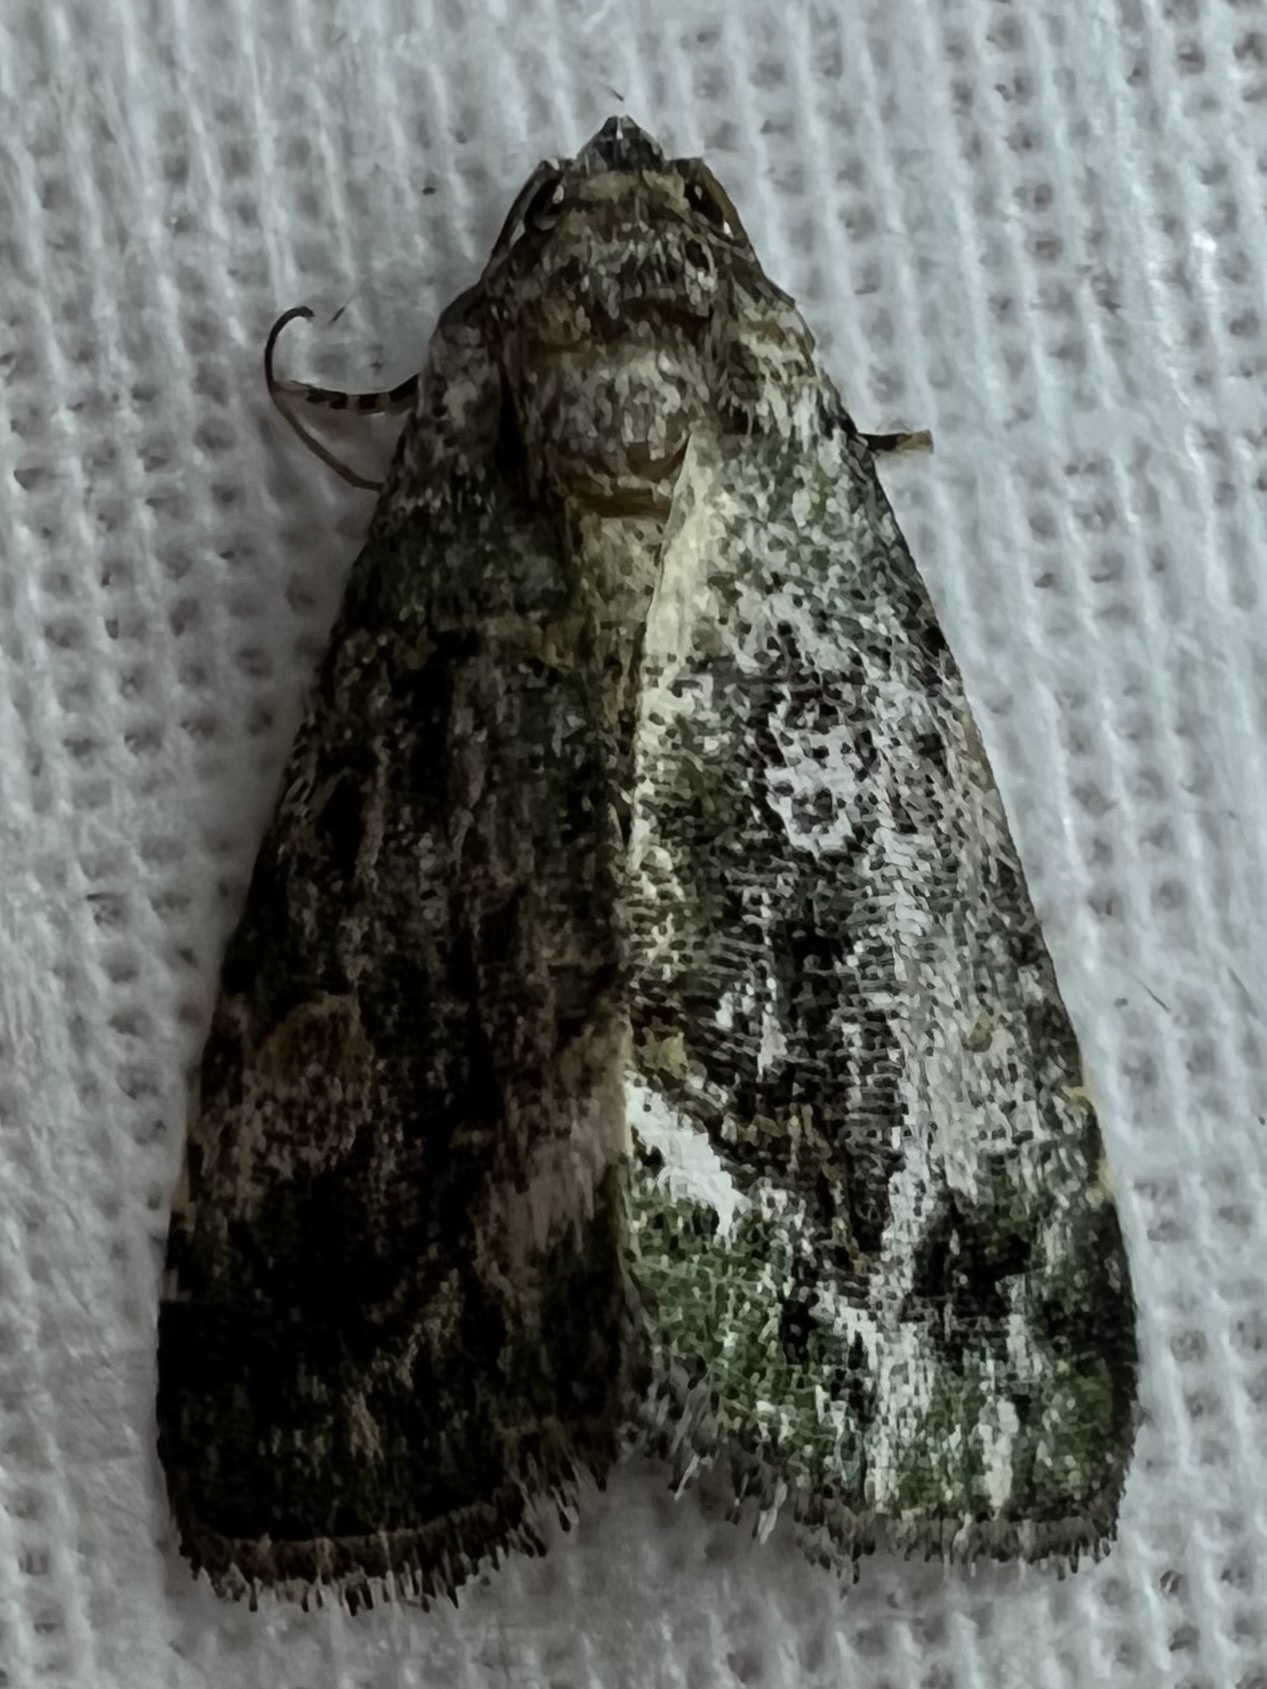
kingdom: Animalia
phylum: Arthropoda
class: Insecta
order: Lepidoptera
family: Noctuidae
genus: Lithacodia
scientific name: Lithacodia musta
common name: Small mossy glyph
